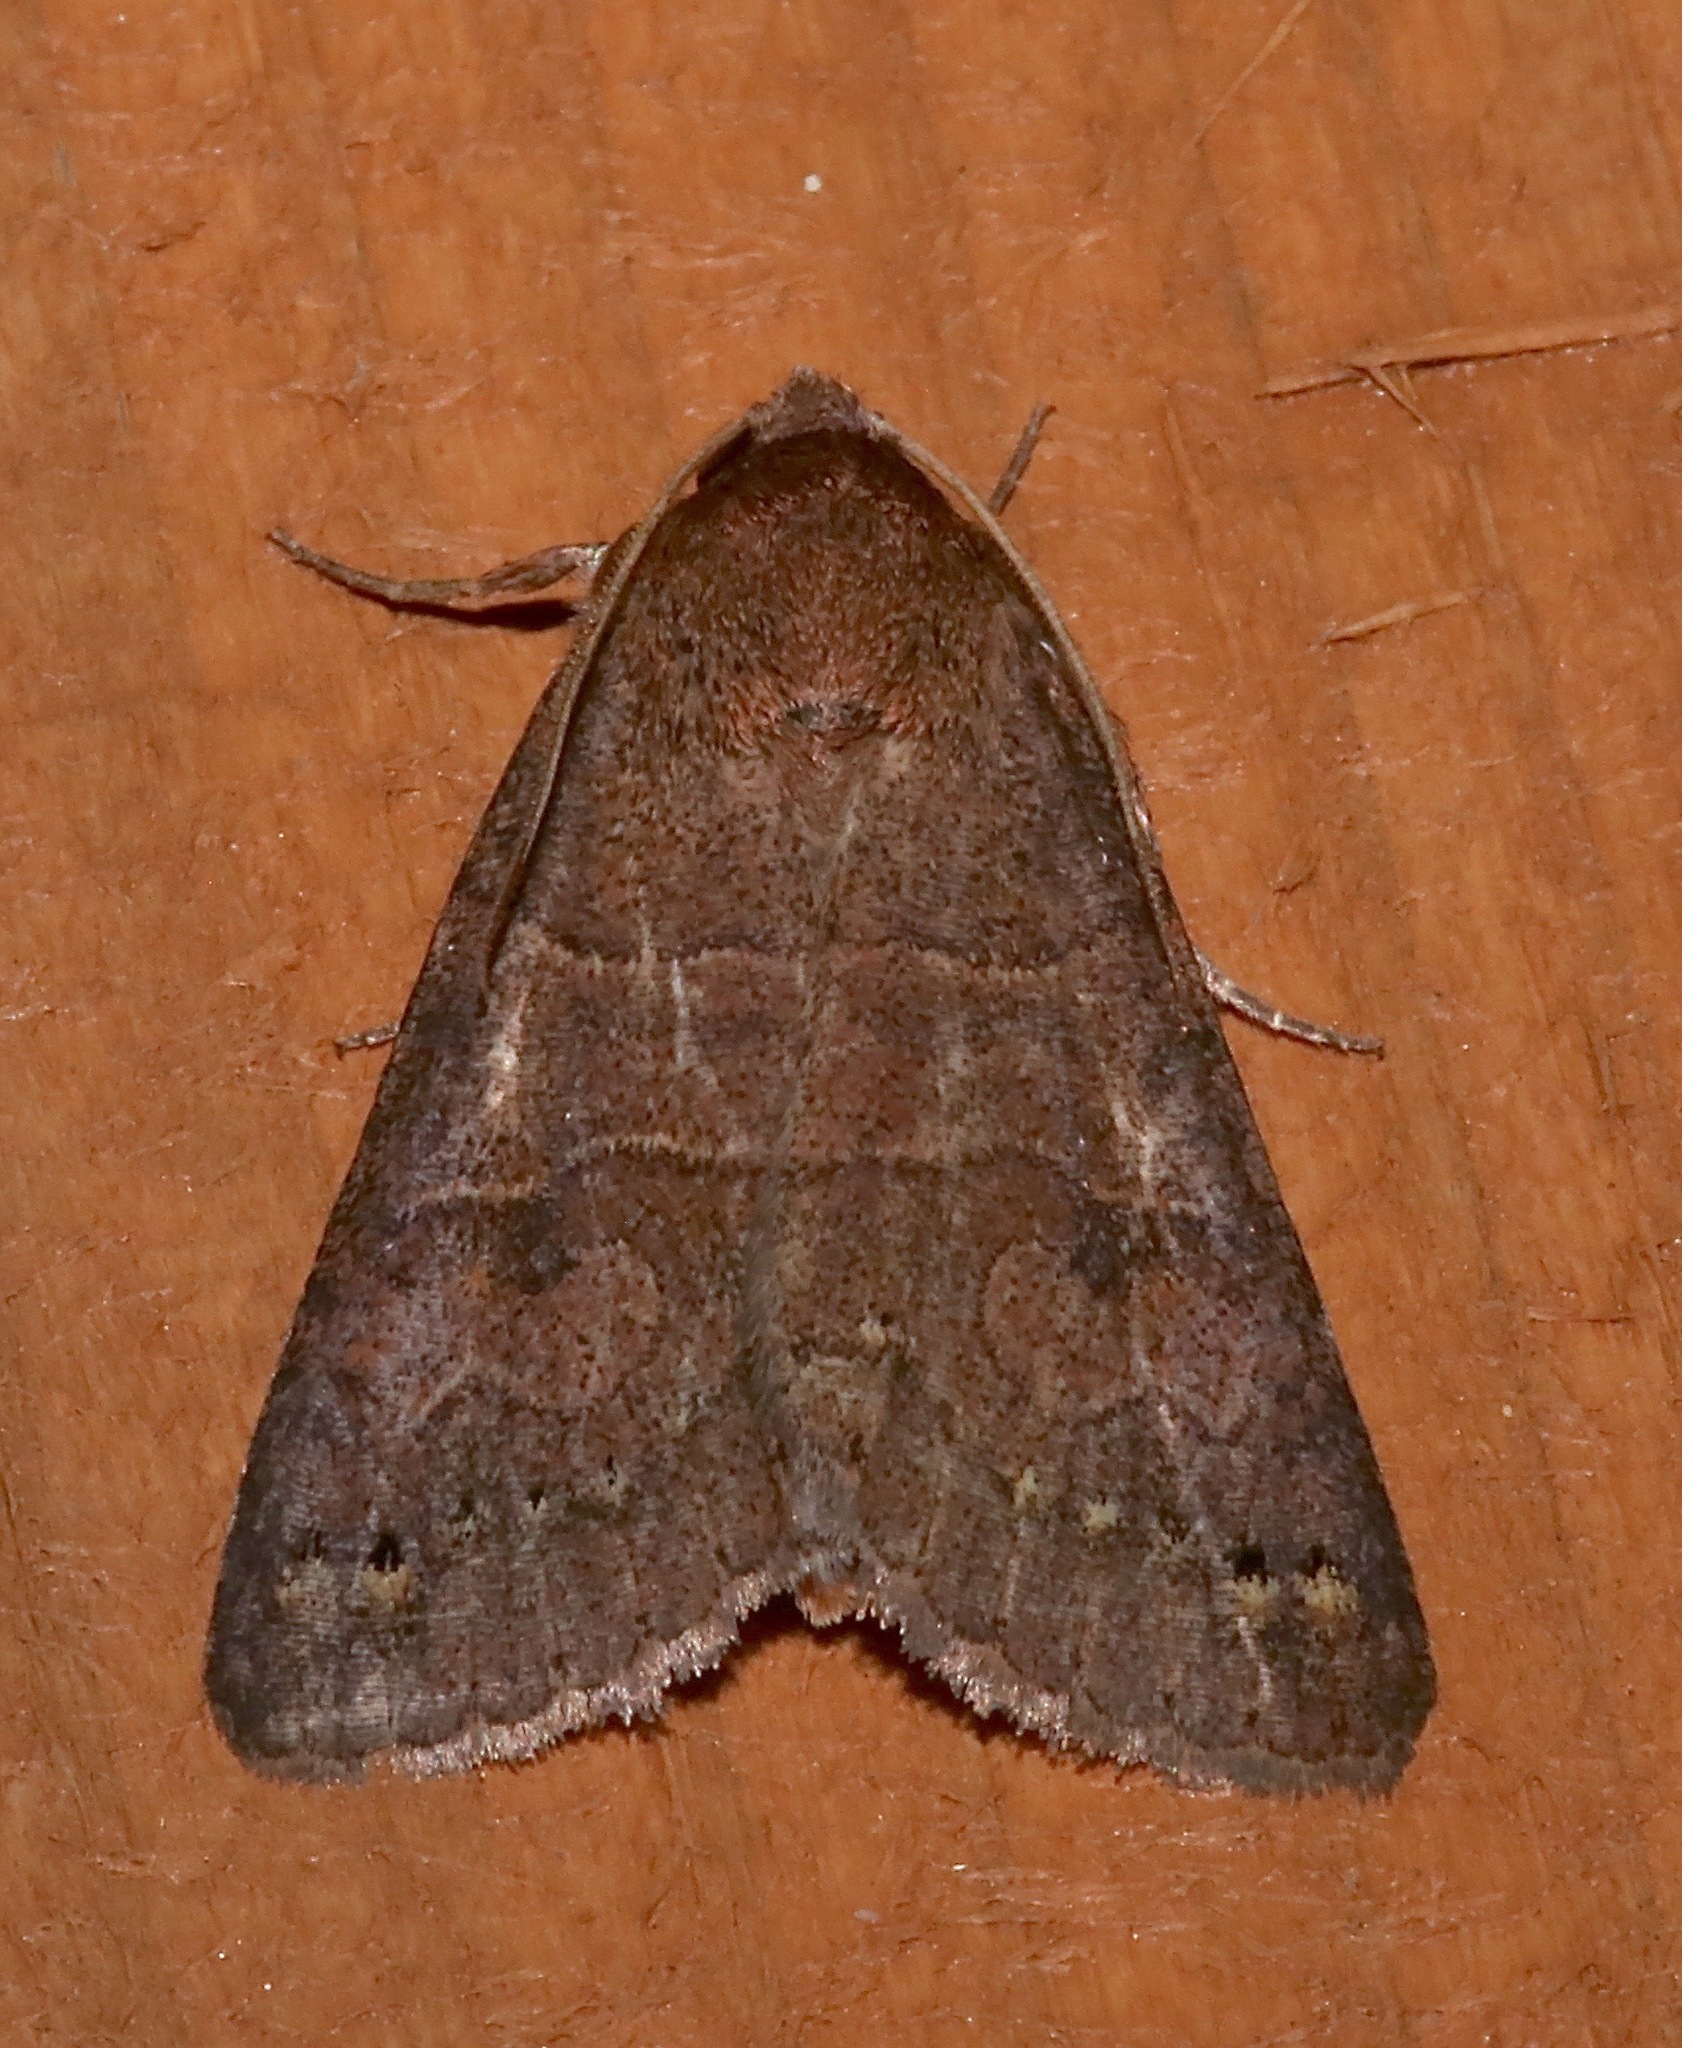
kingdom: Animalia
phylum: Arthropoda
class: Insecta
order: Lepidoptera
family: Erebidae
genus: Cissusa
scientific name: Cissusa spadix
